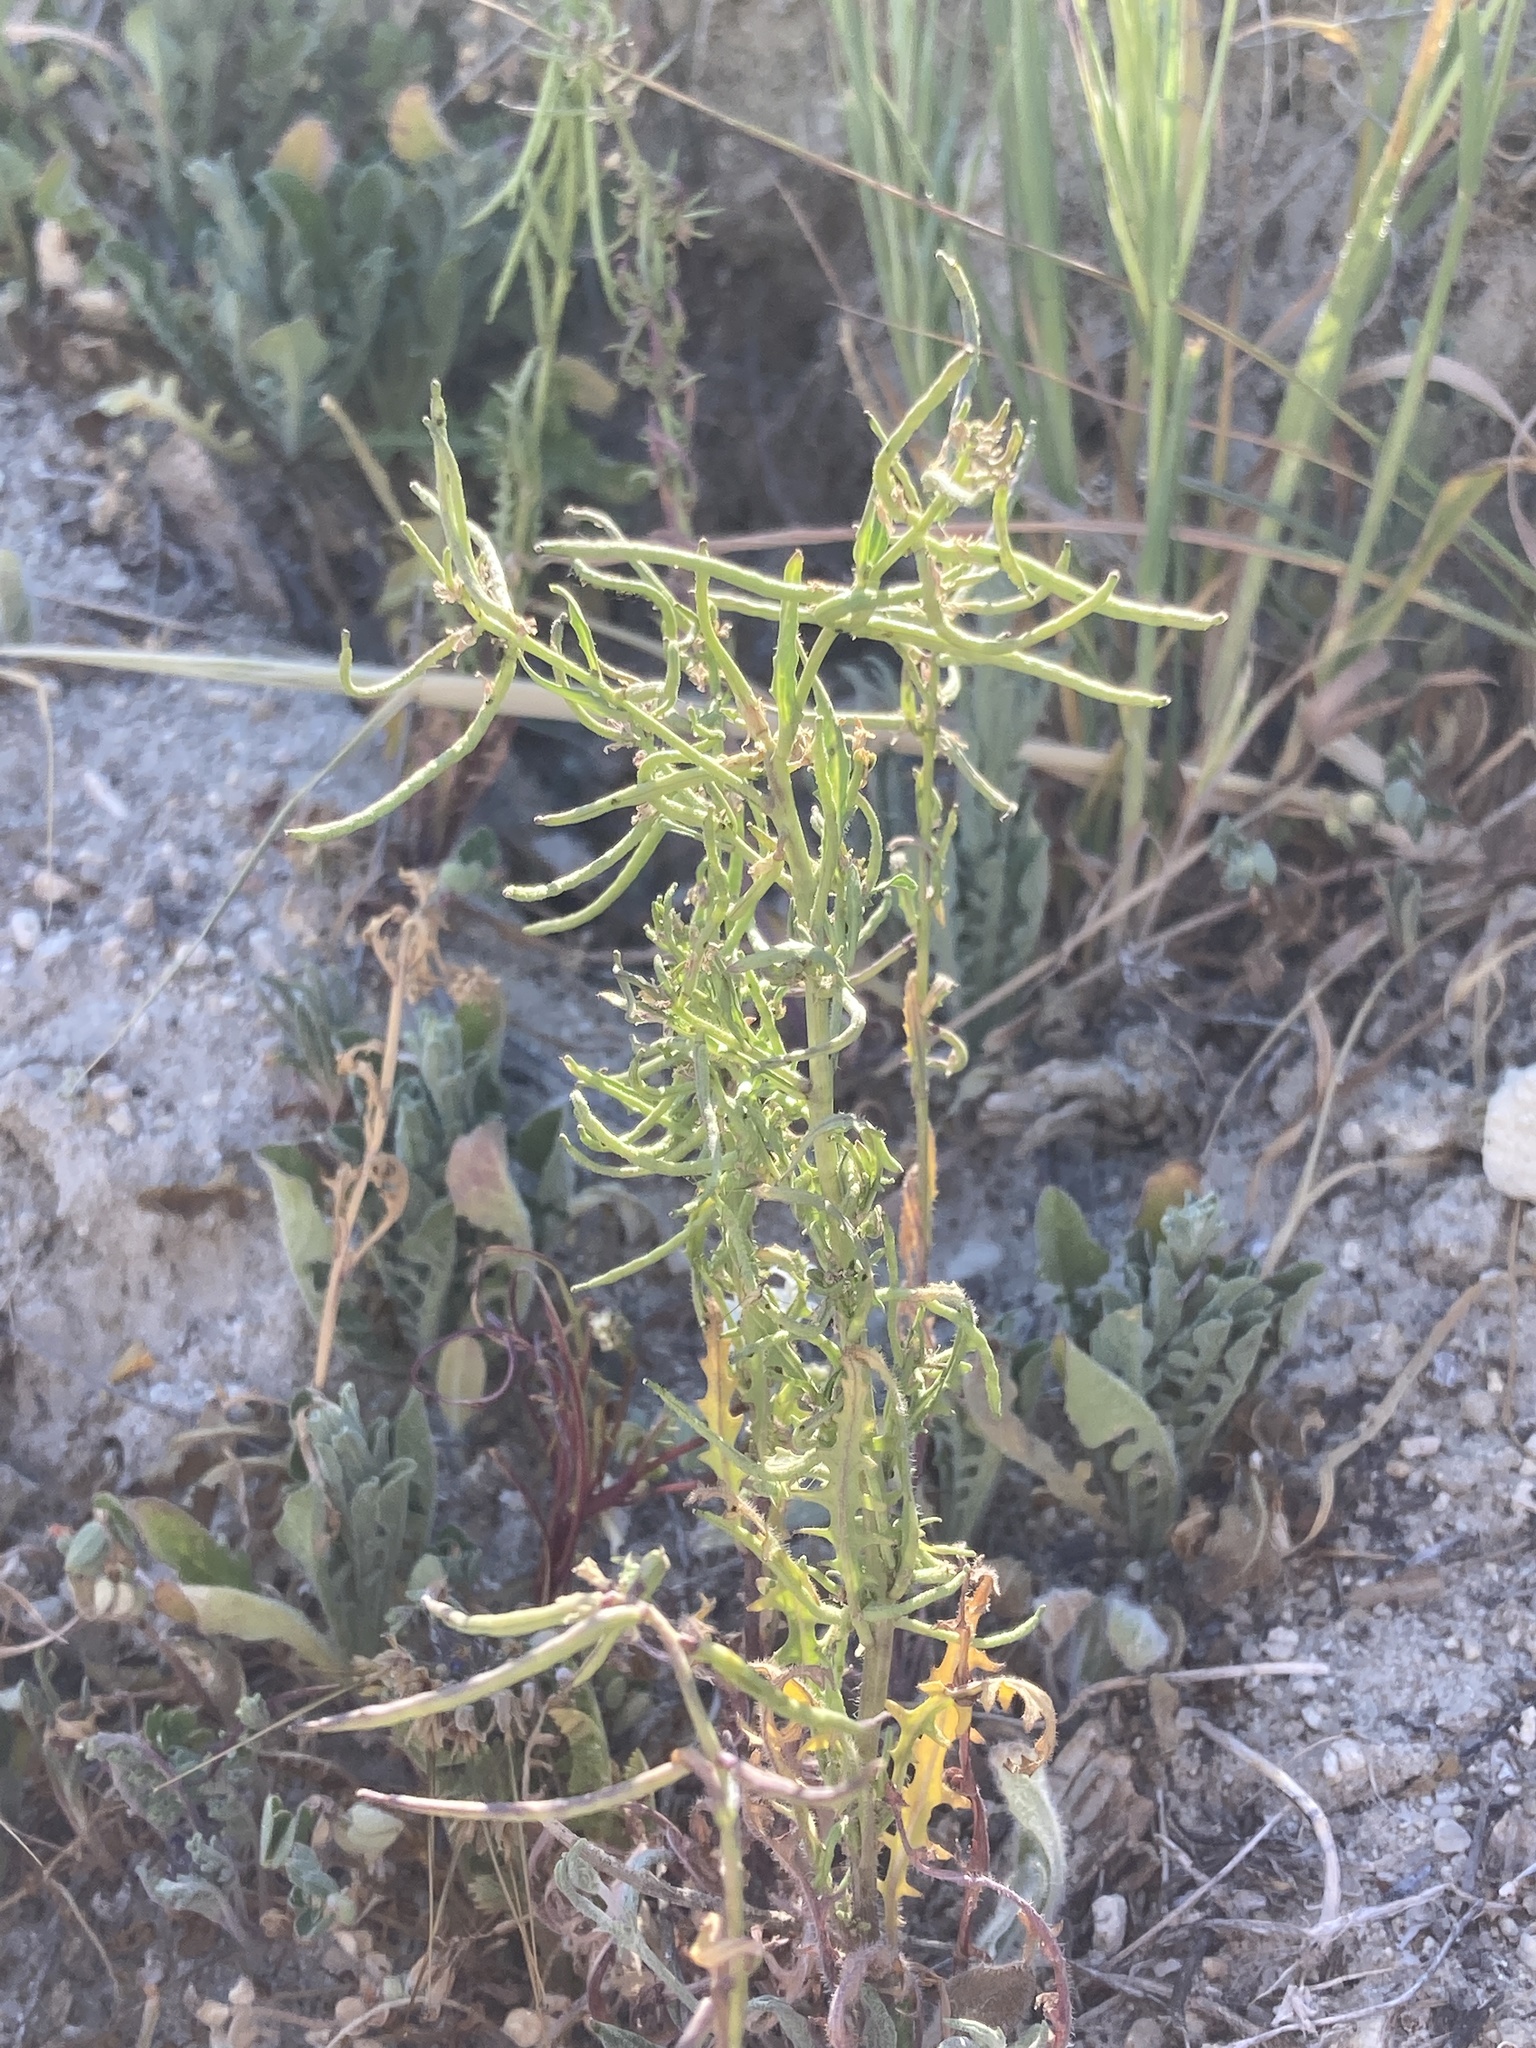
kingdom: Plantae
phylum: Tracheophyta
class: Magnoliopsida
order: Brassicales
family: Brassicaceae
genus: Streptanthus
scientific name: Streptanthus lasiophyllus
